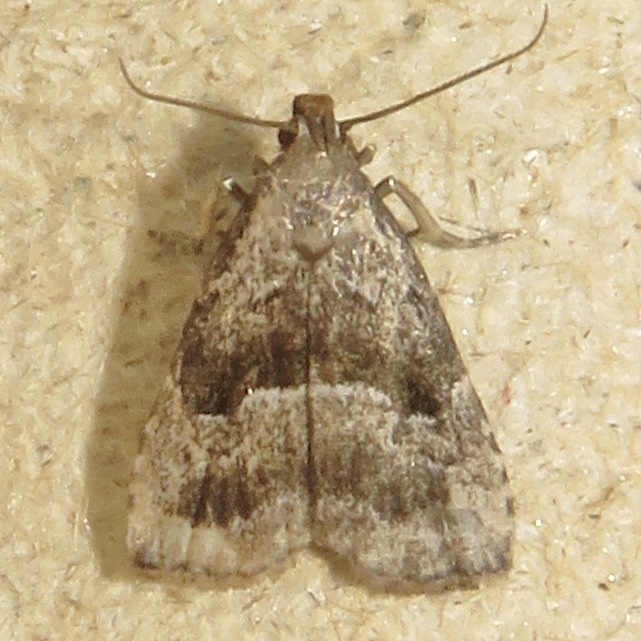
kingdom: Animalia
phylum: Arthropoda
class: Insecta
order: Lepidoptera
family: Erebidae
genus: Hypenodes
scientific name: Hypenodes caducus
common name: Large hypenodes moth
